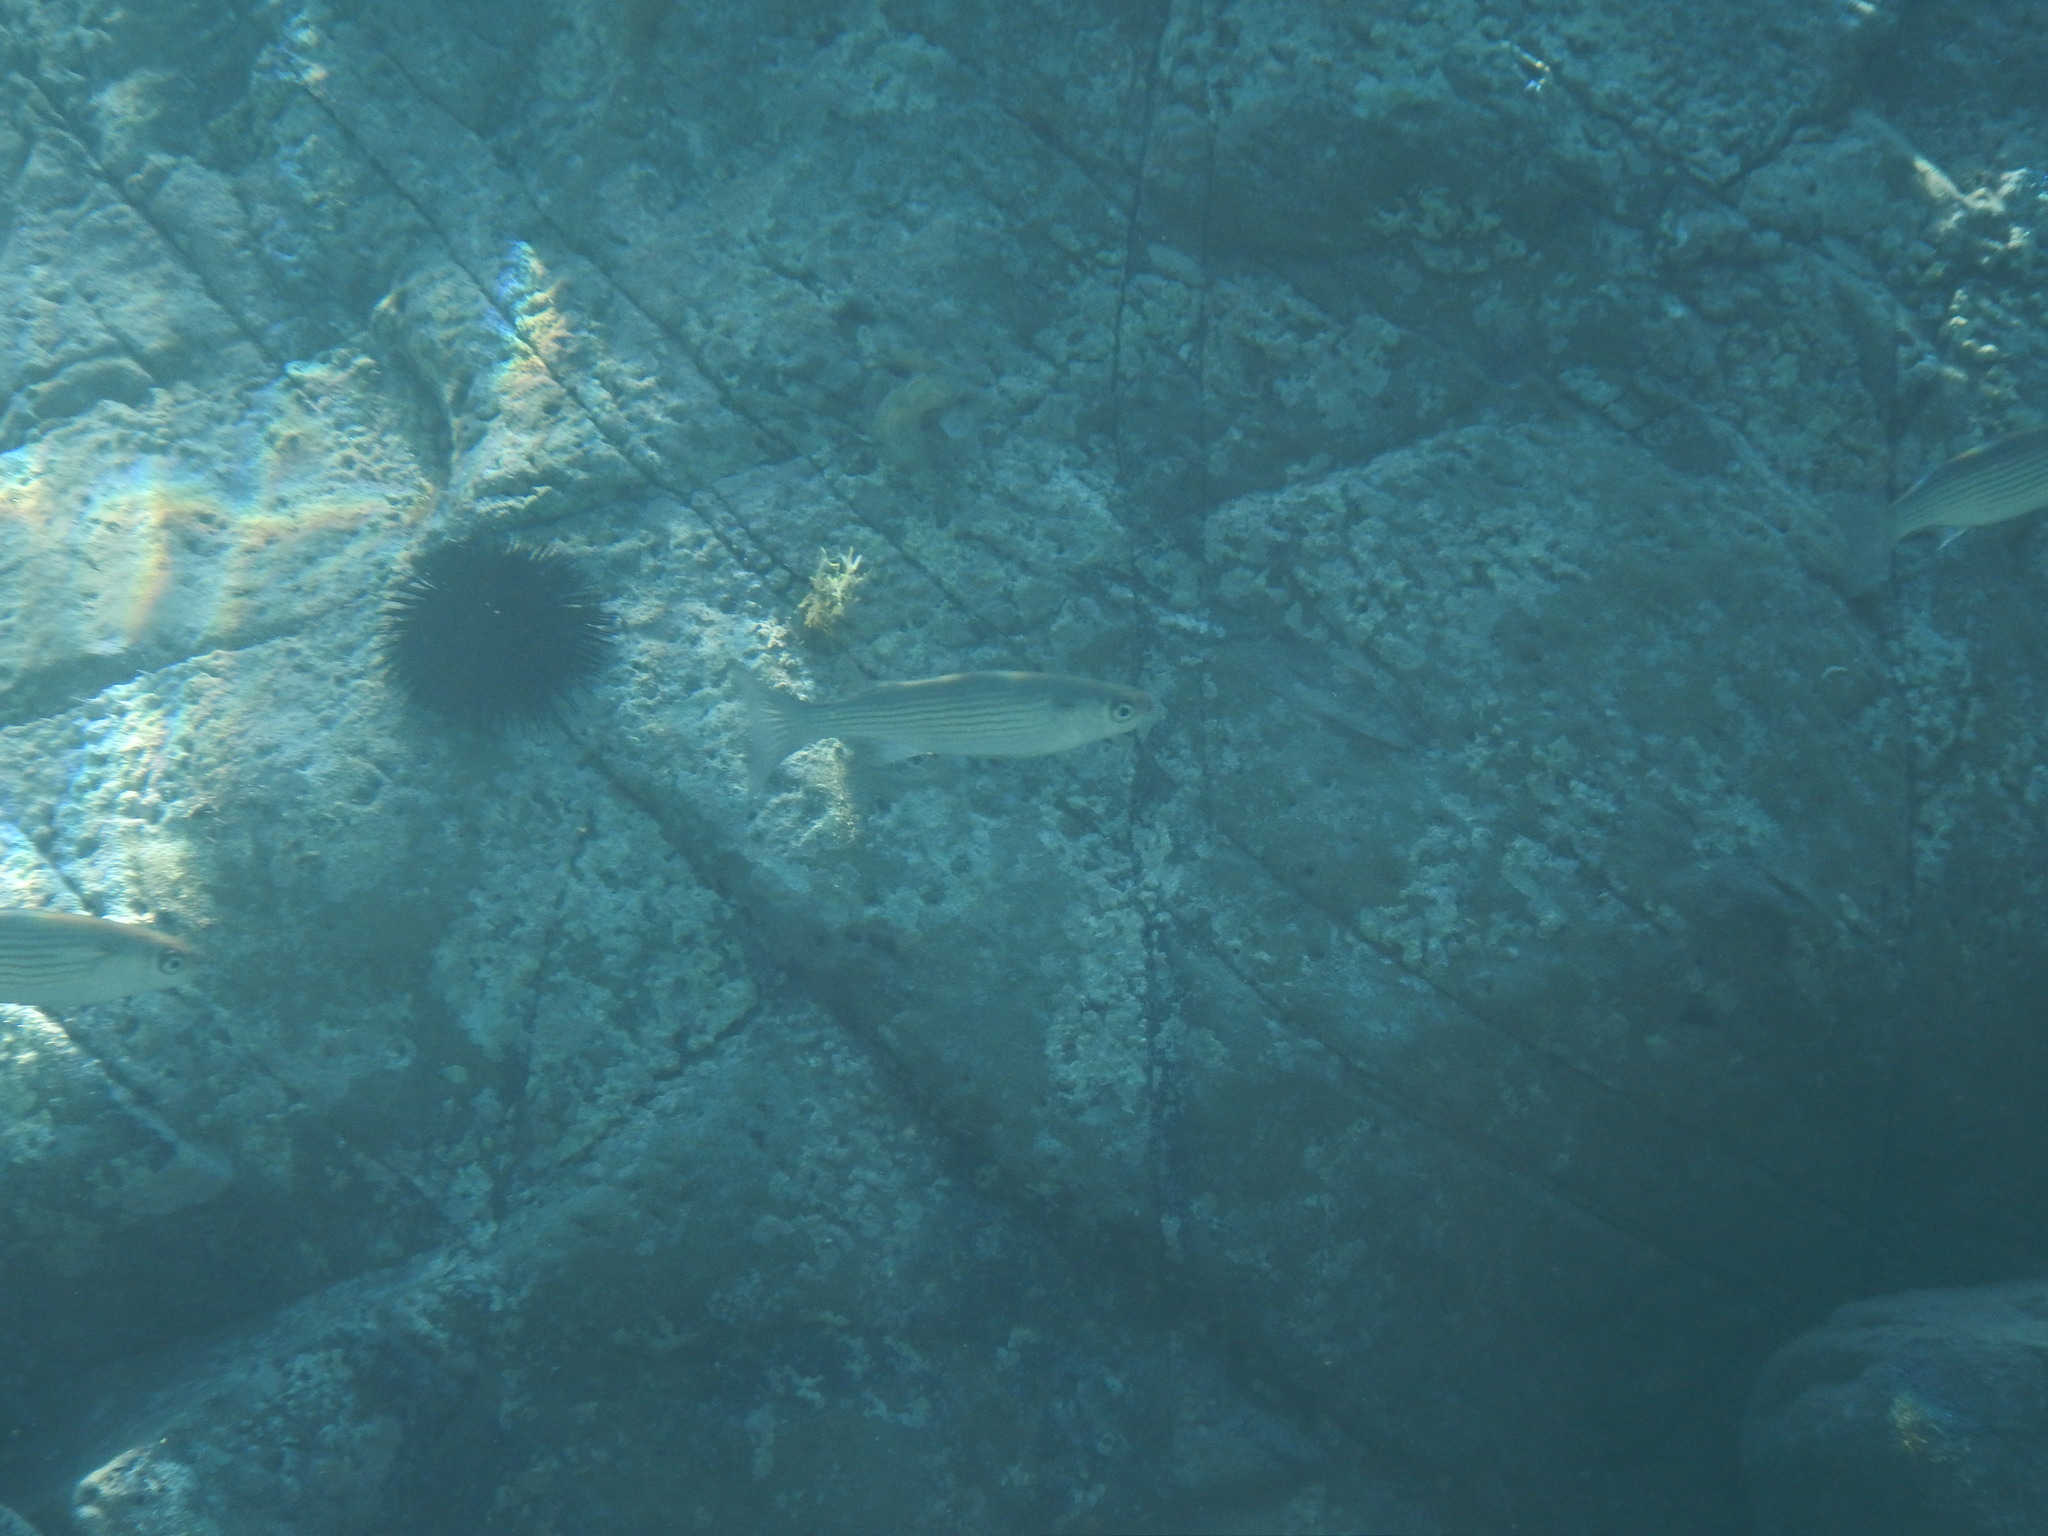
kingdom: Animalia
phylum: Chordata
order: Mugiliformes
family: Mugilidae
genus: Oedalechilus
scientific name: Oedalechilus labeo
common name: Boxlip mullet
